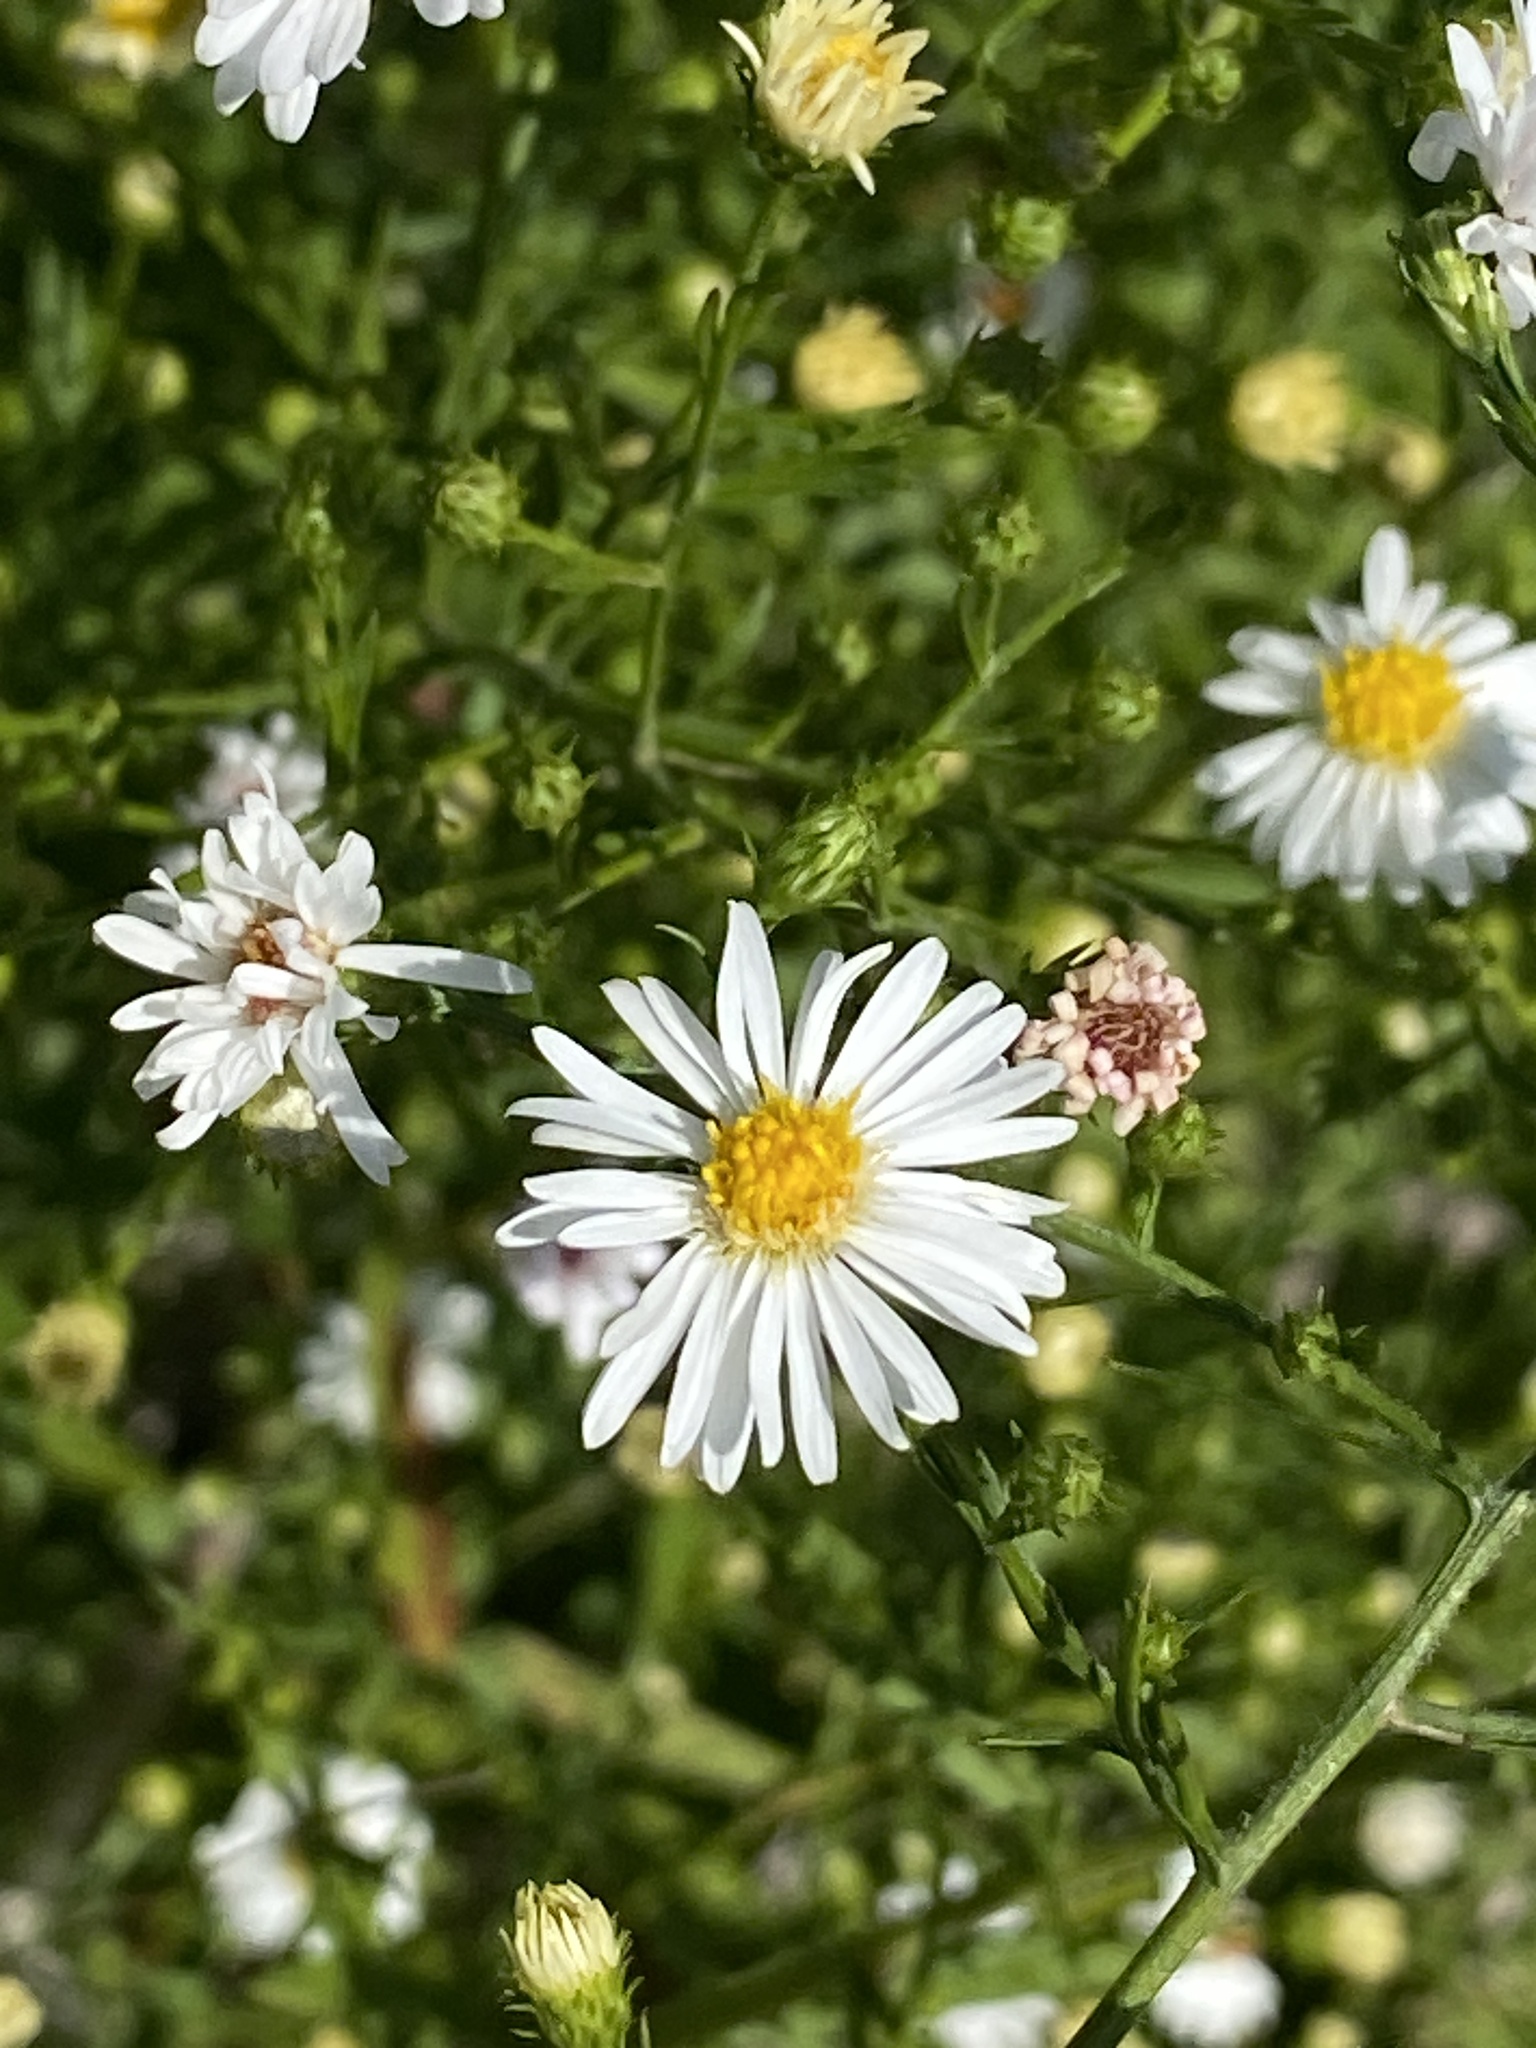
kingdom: Plantae
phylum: Tracheophyta
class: Magnoliopsida
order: Asterales
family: Asteraceae
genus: Symphyotrichum
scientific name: Symphyotrichum pilosum
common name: Awl aster
